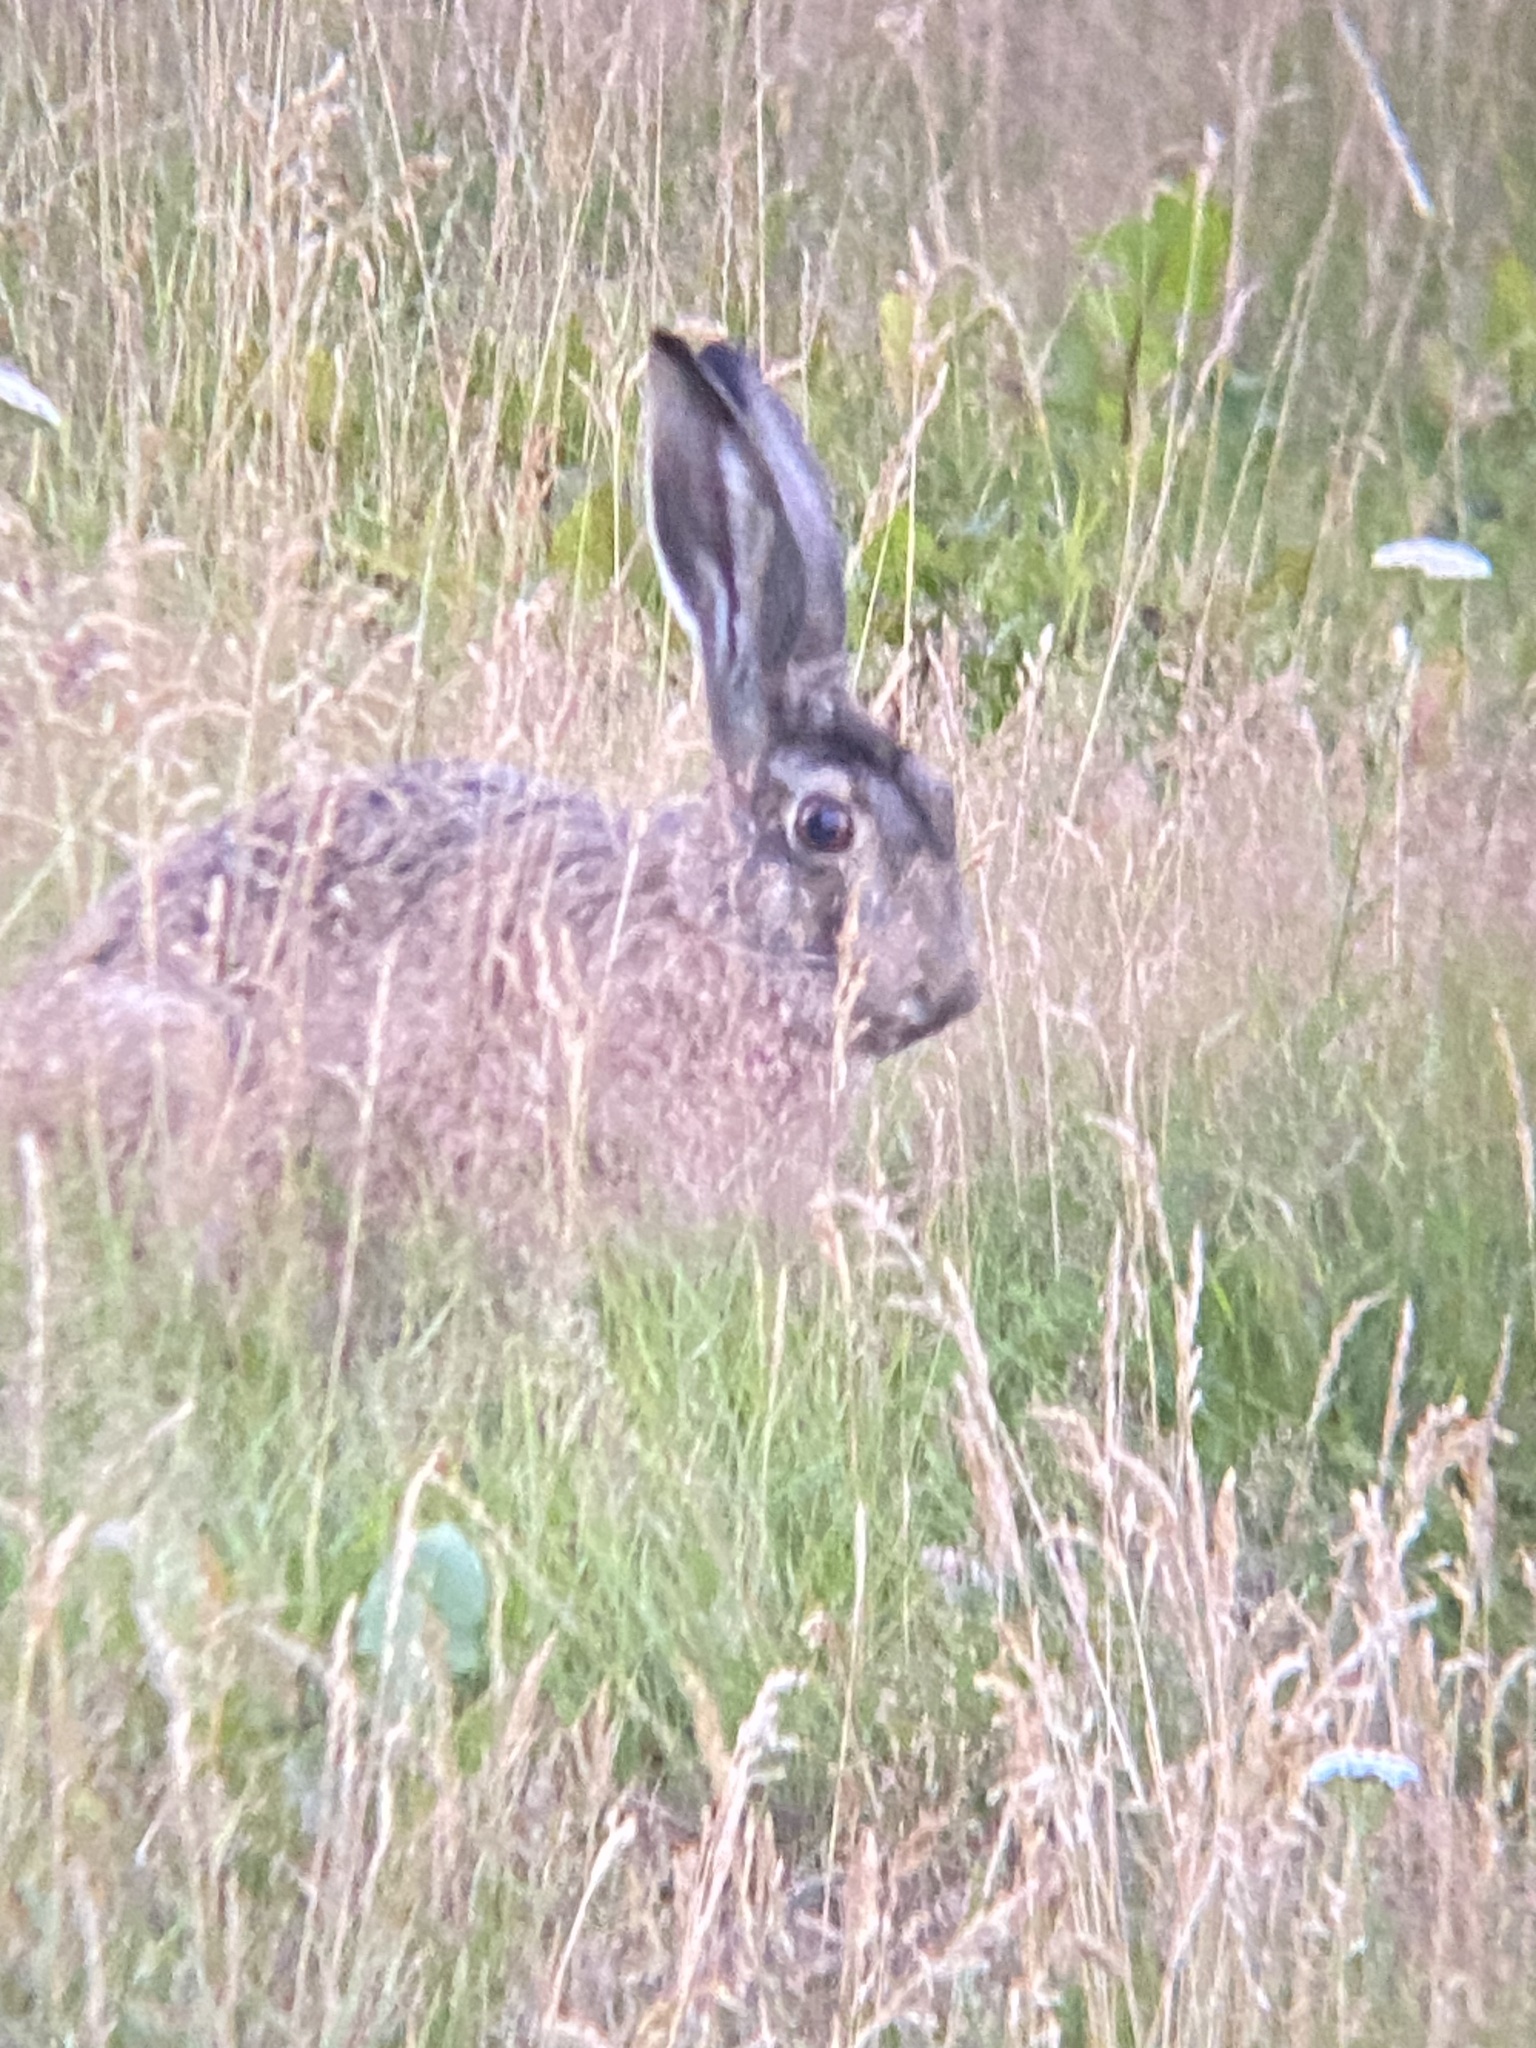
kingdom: Animalia
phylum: Chordata
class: Mammalia
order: Lagomorpha
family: Leporidae
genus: Lepus
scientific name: Lepus europaeus
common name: European hare
